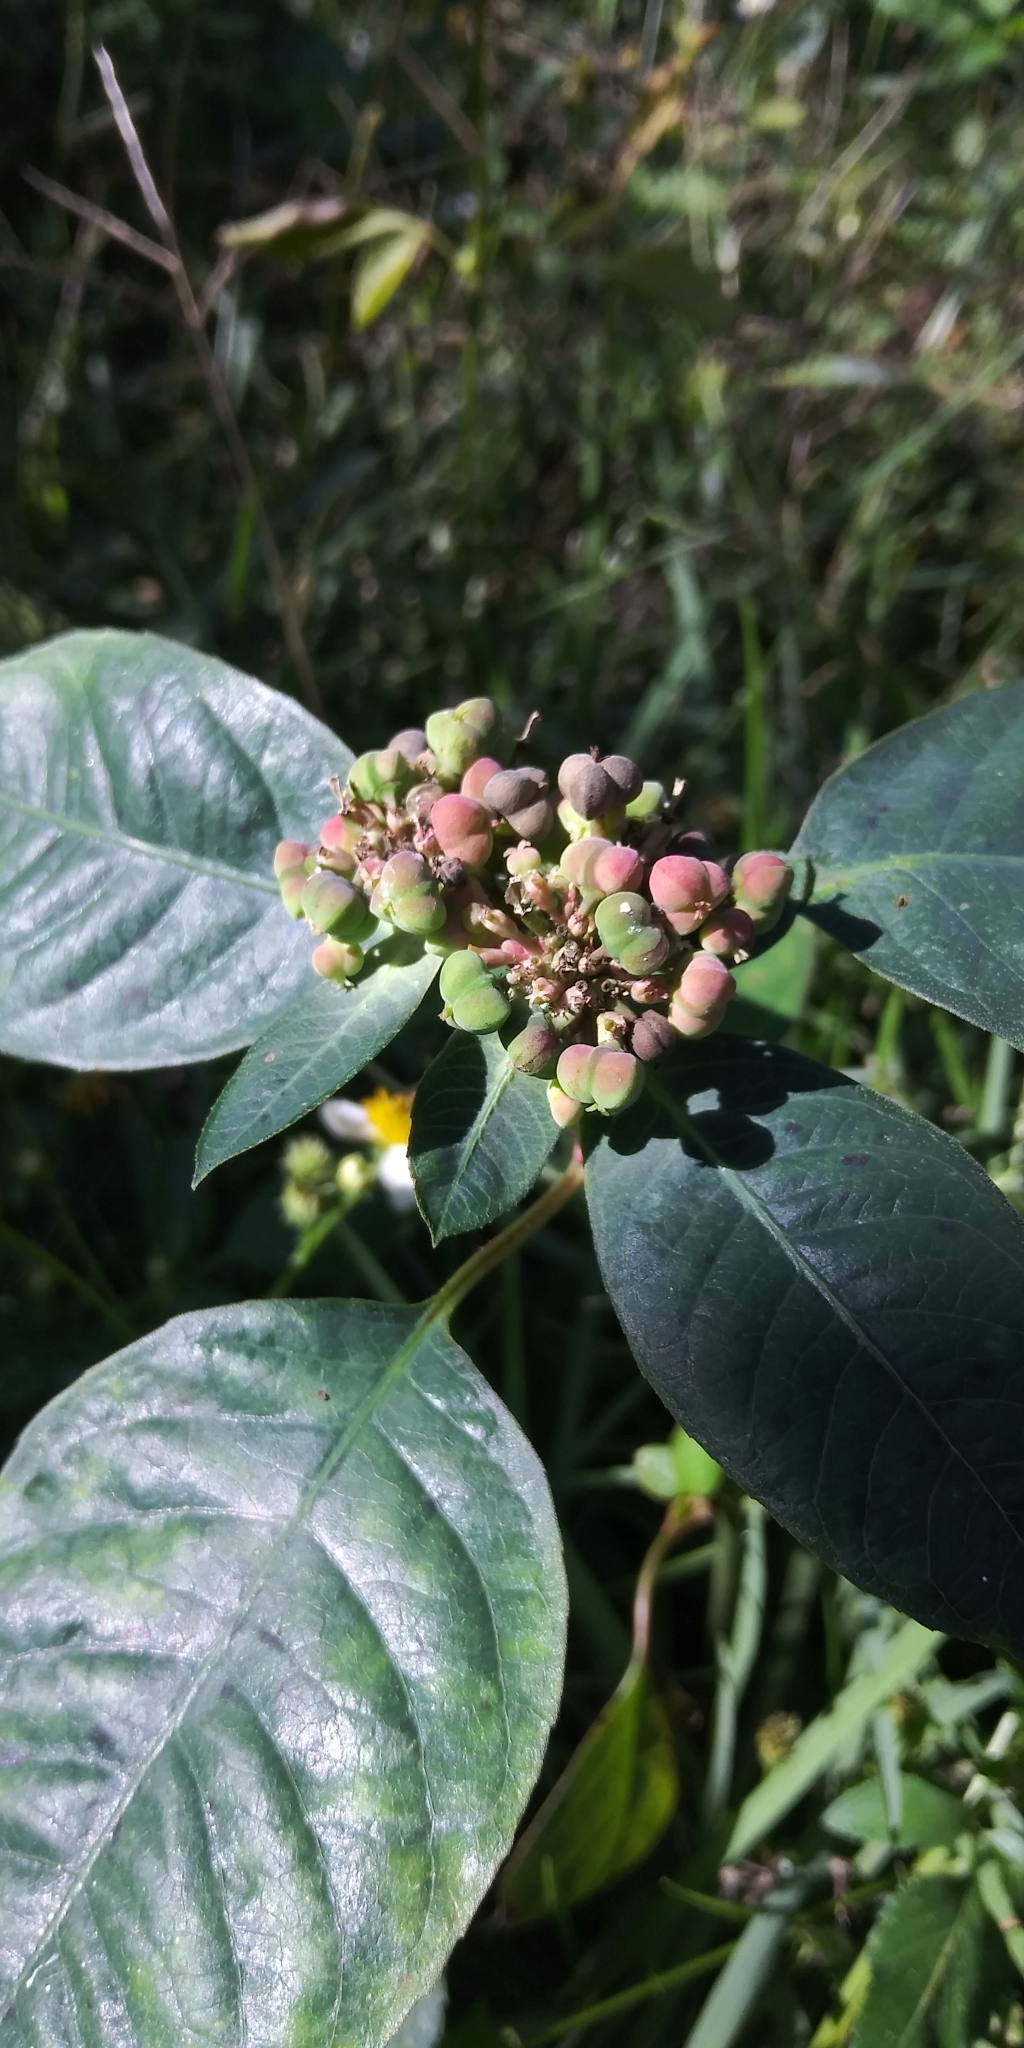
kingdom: Plantae
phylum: Tracheophyta
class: Magnoliopsida
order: Malpighiales
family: Euphorbiaceae
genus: Euphorbia
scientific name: Euphorbia heterophylla
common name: Mexican fireplant
